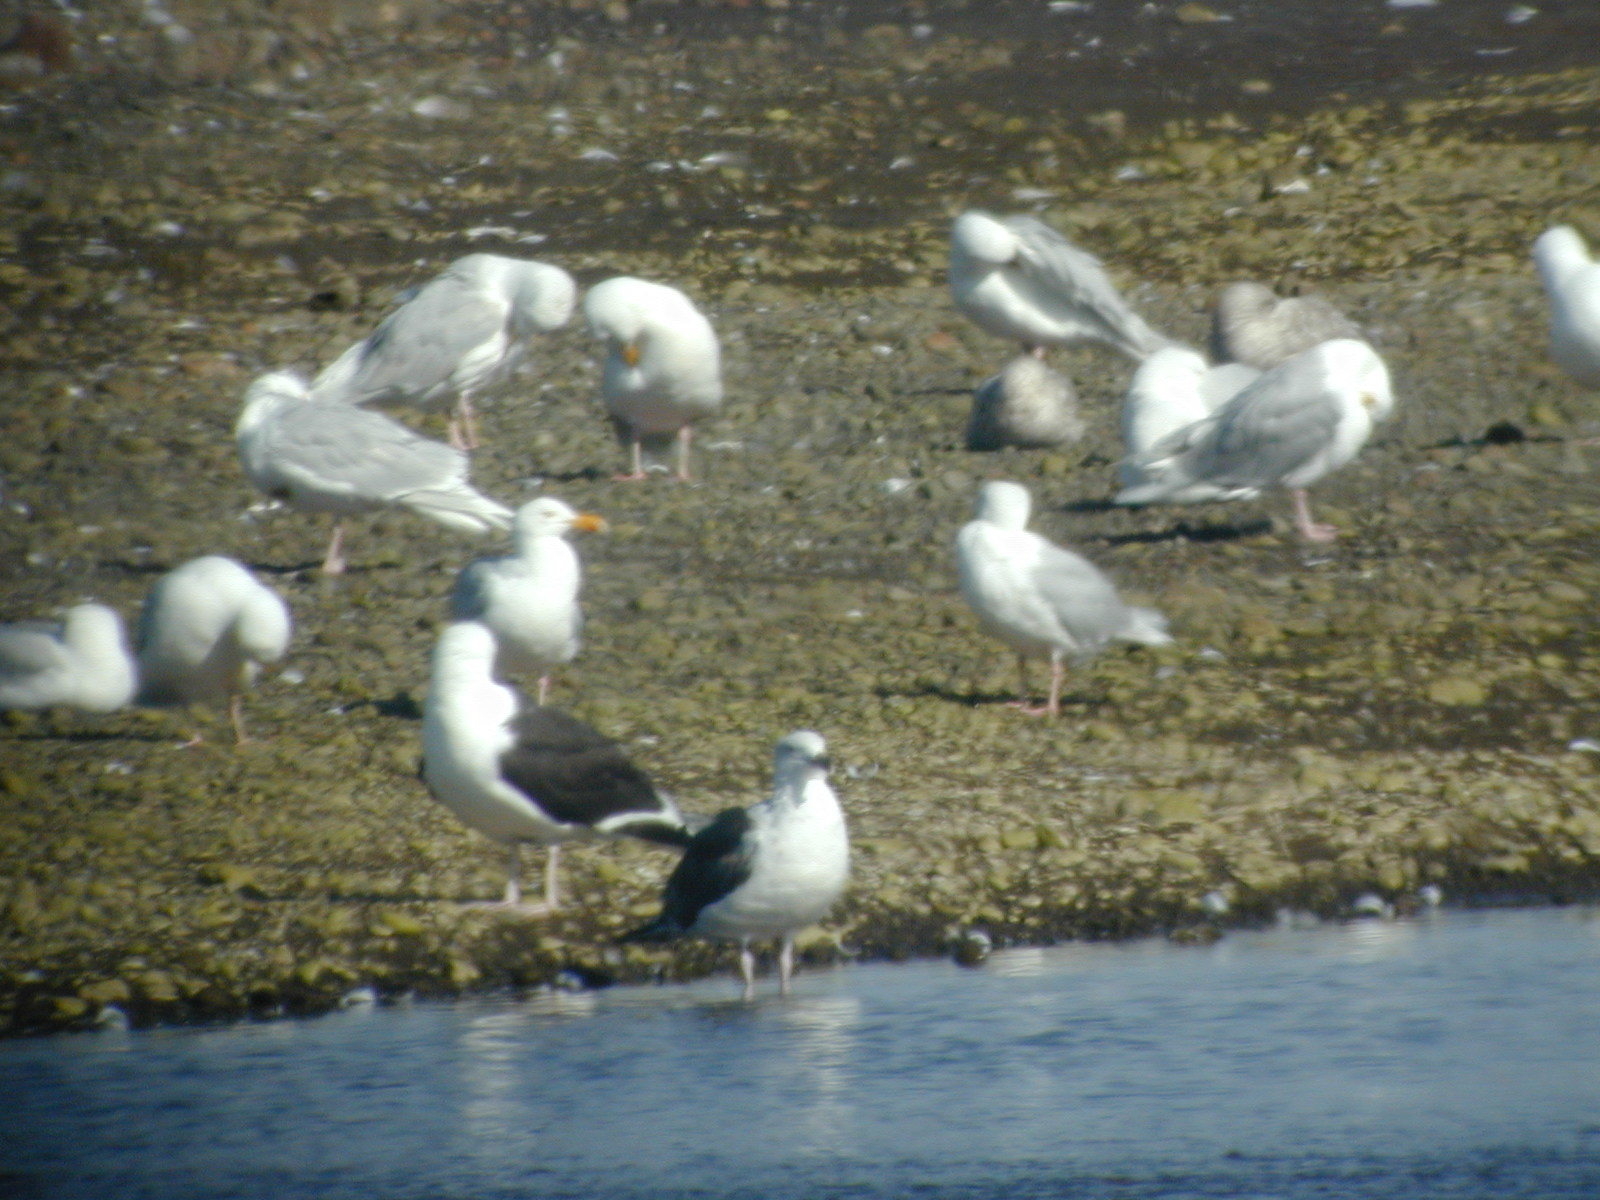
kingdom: Animalia
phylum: Chordata
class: Aves
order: Charadriiformes
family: Laridae
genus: Larus
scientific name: Larus hyperboreus
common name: Glaucous gull
